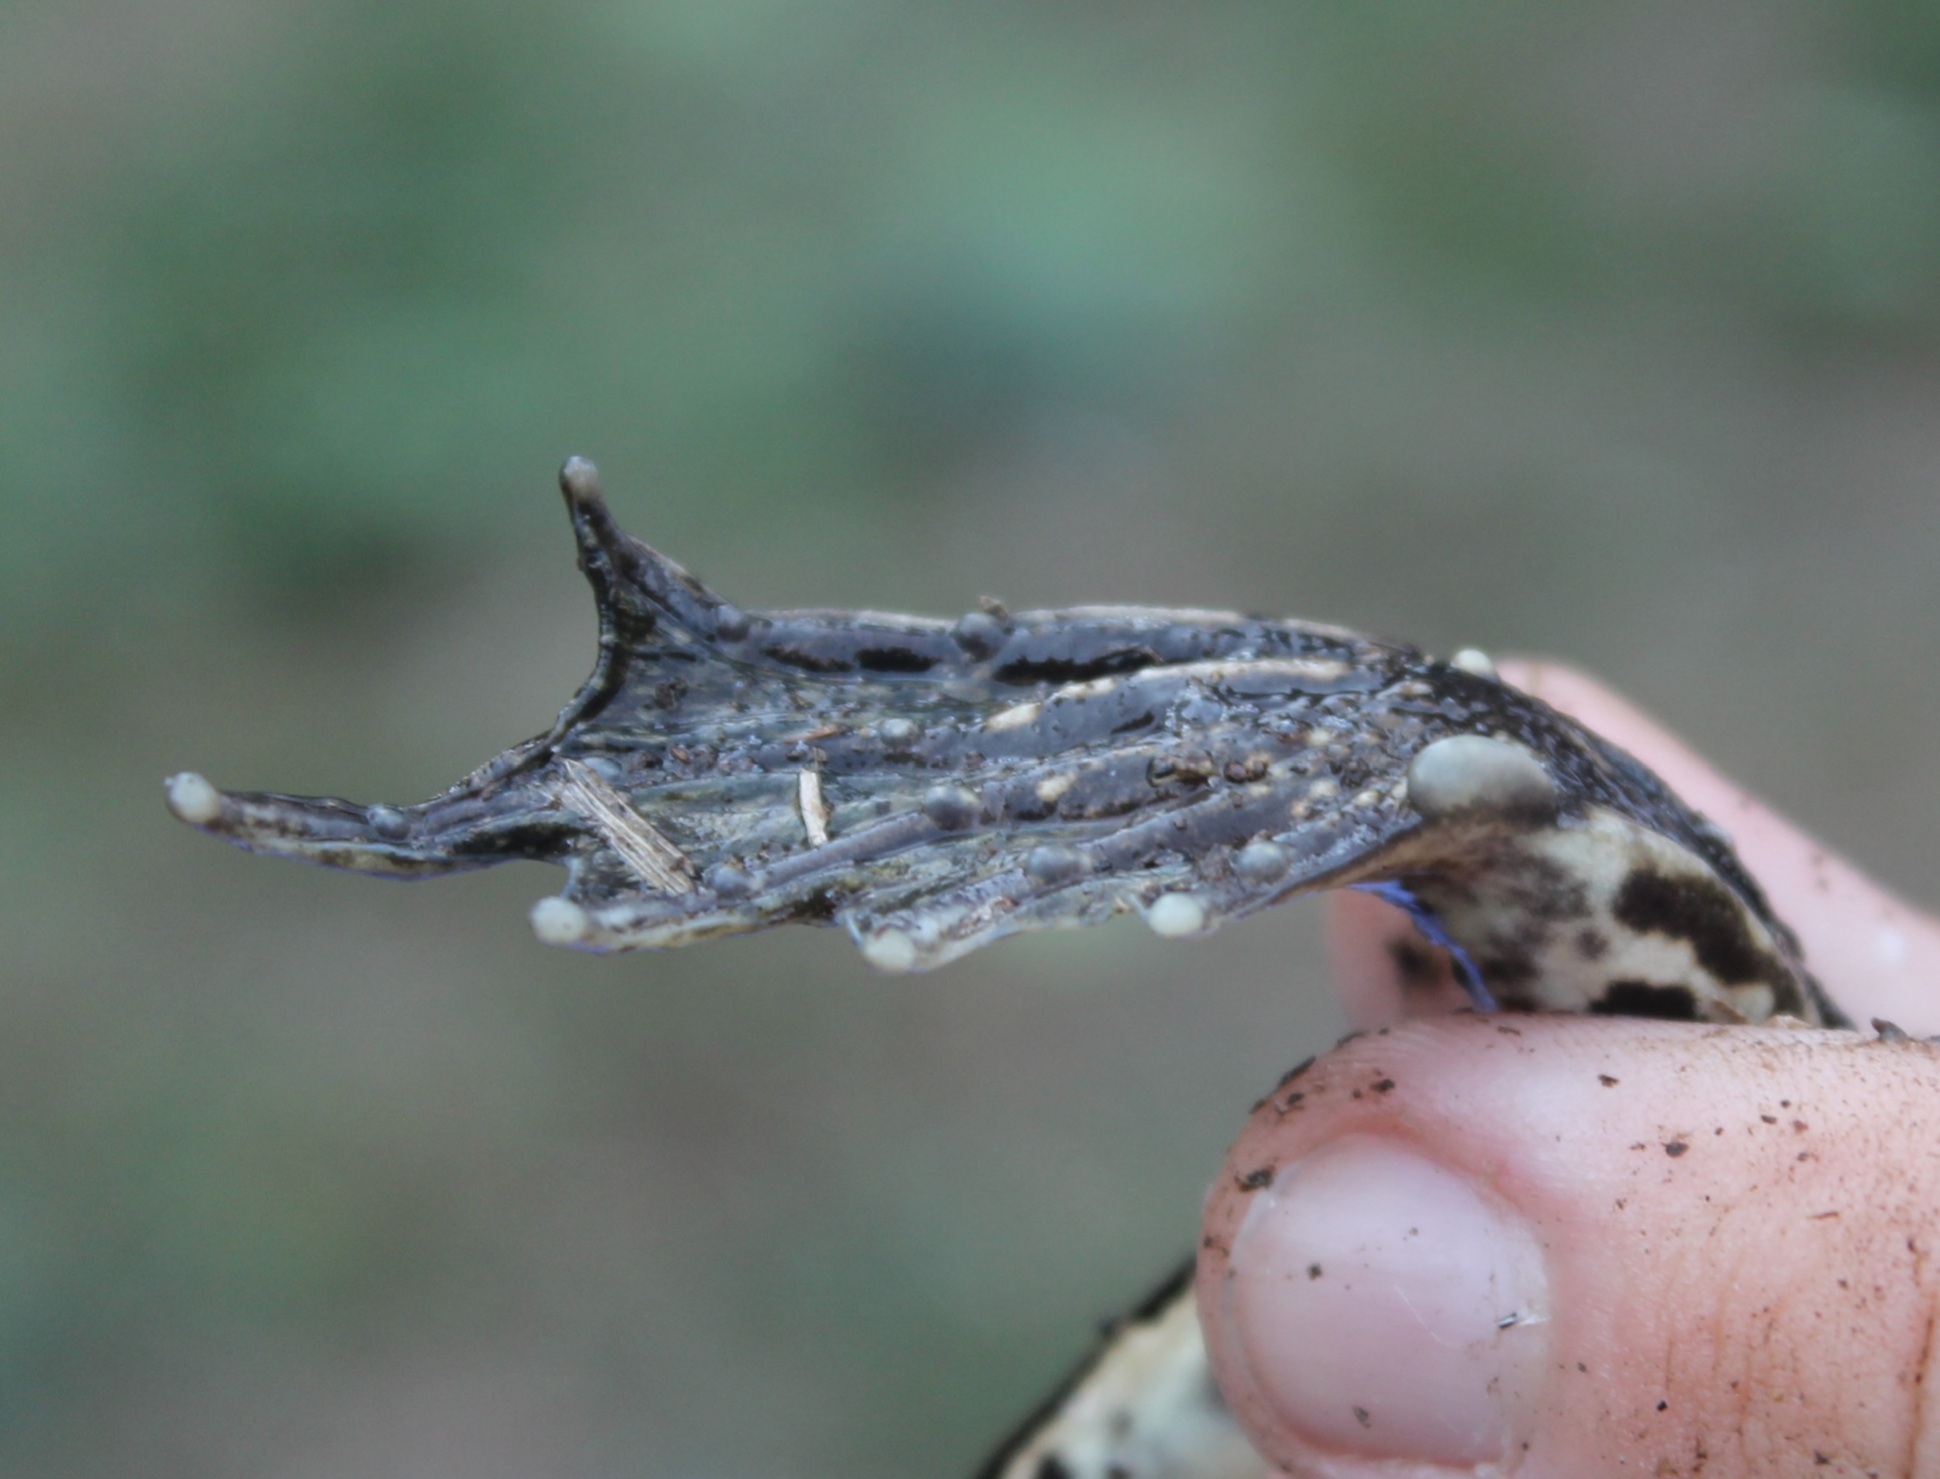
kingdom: Animalia
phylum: Chordata
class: Amphibia
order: Anura
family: Ranidae
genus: Pelophylax
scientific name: Pelophylax
